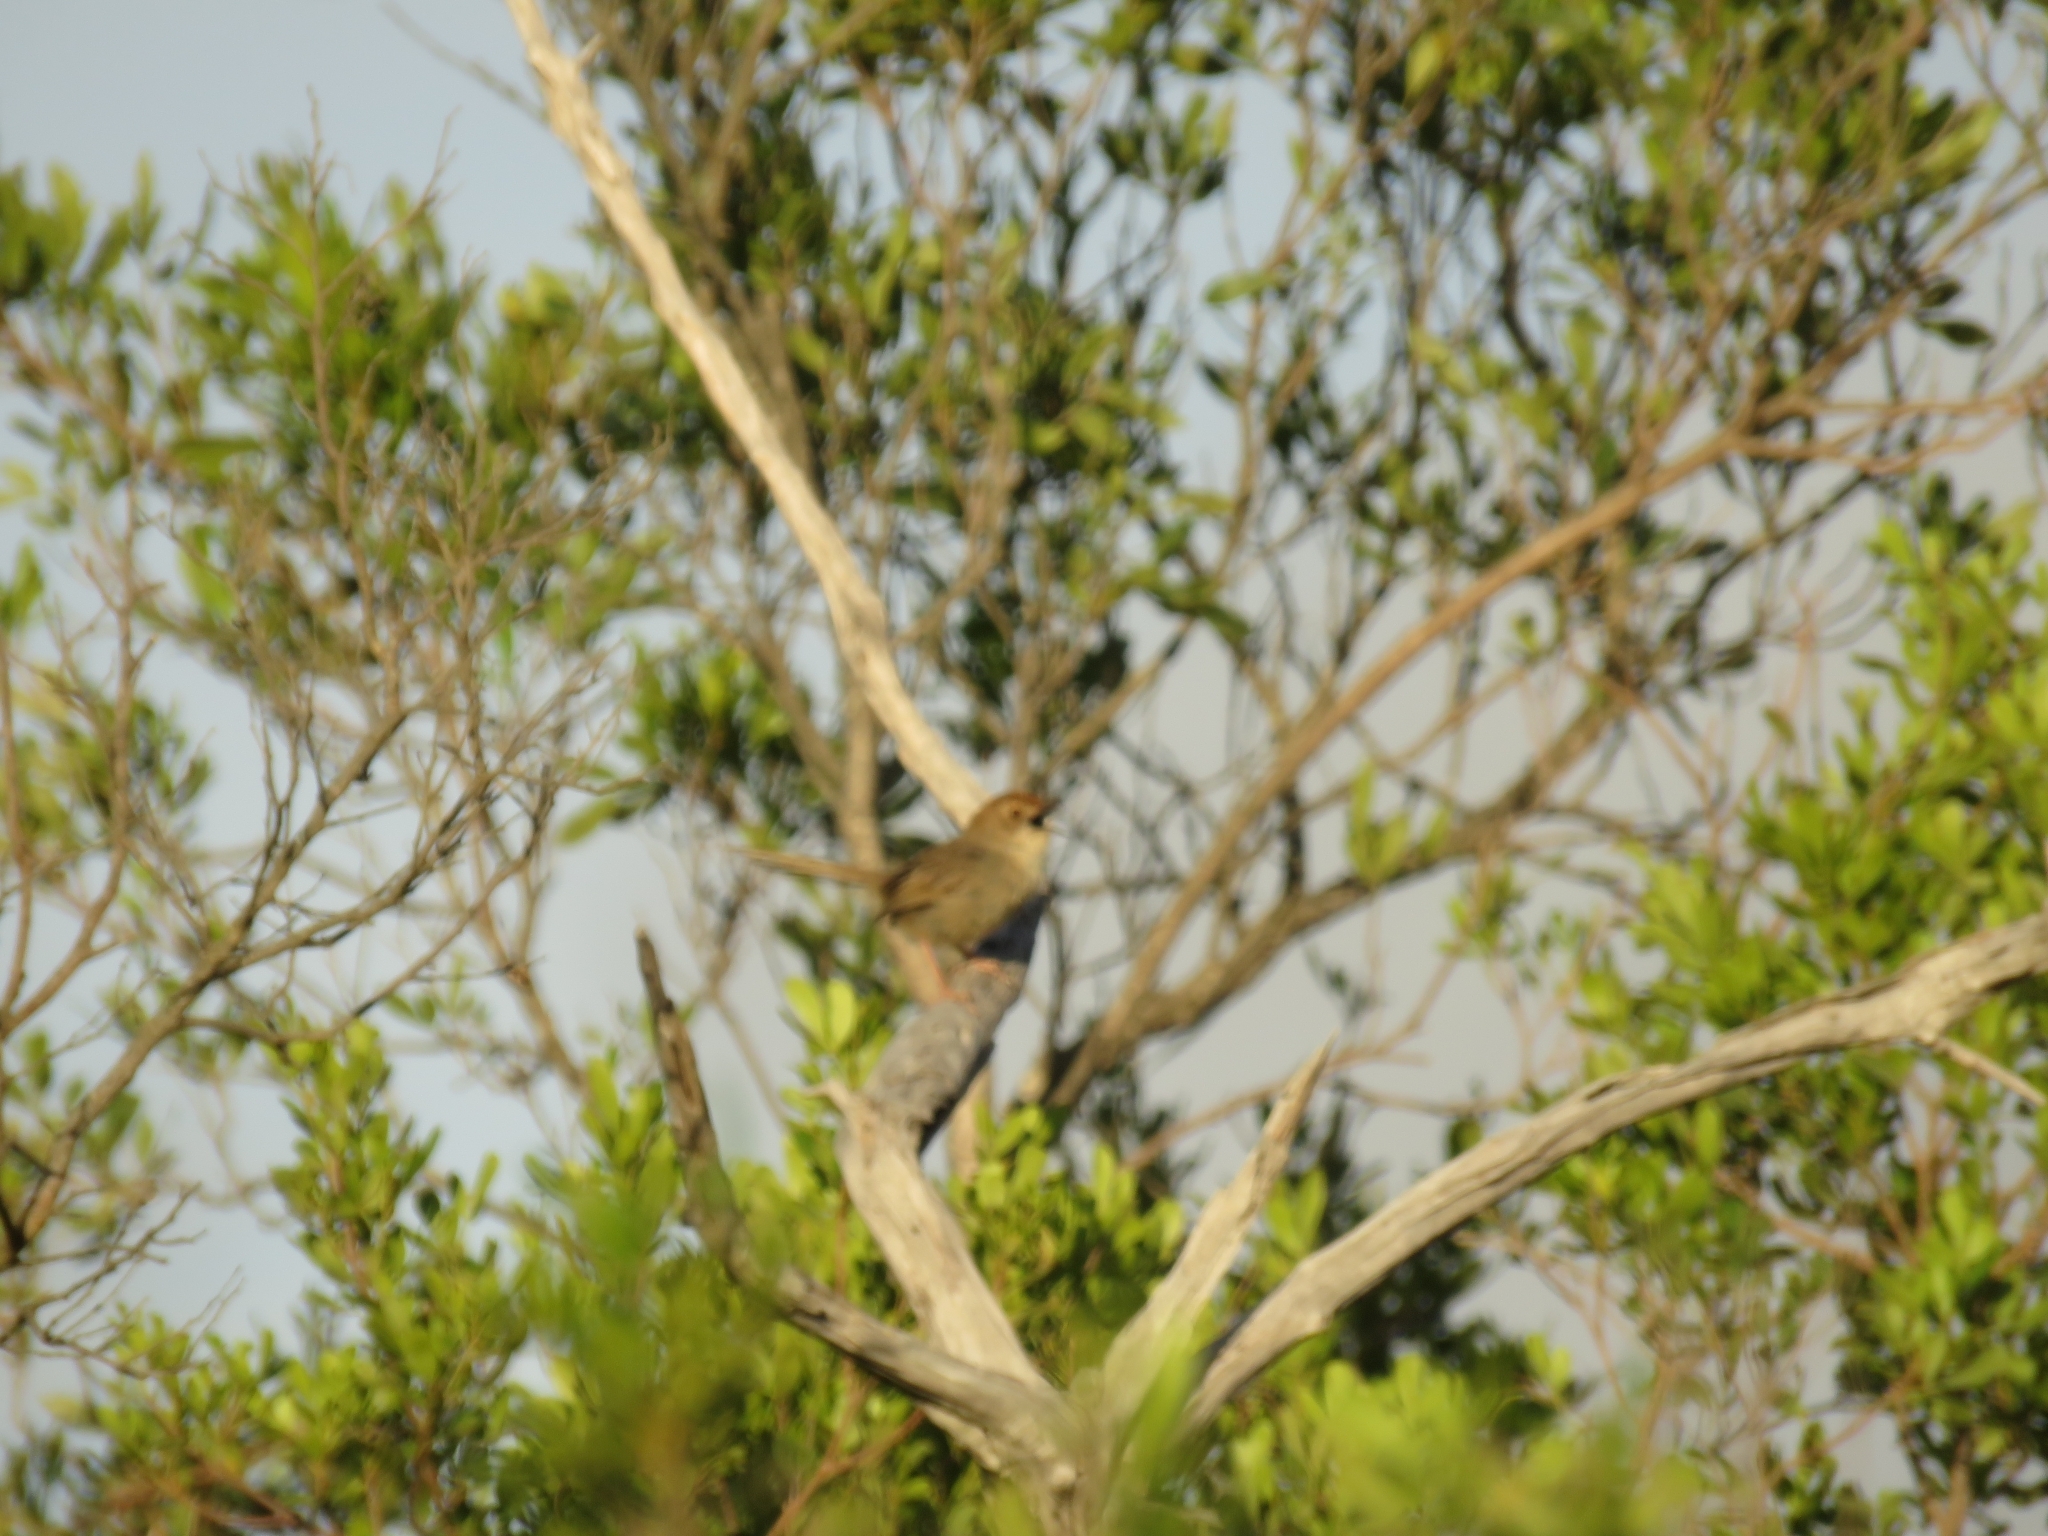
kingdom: Animalia
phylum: Chordata
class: Aves
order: Passeriformes
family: Cisticolidae
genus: Cisticola
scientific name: Cisticola aberrans
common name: Lazy cisticola
